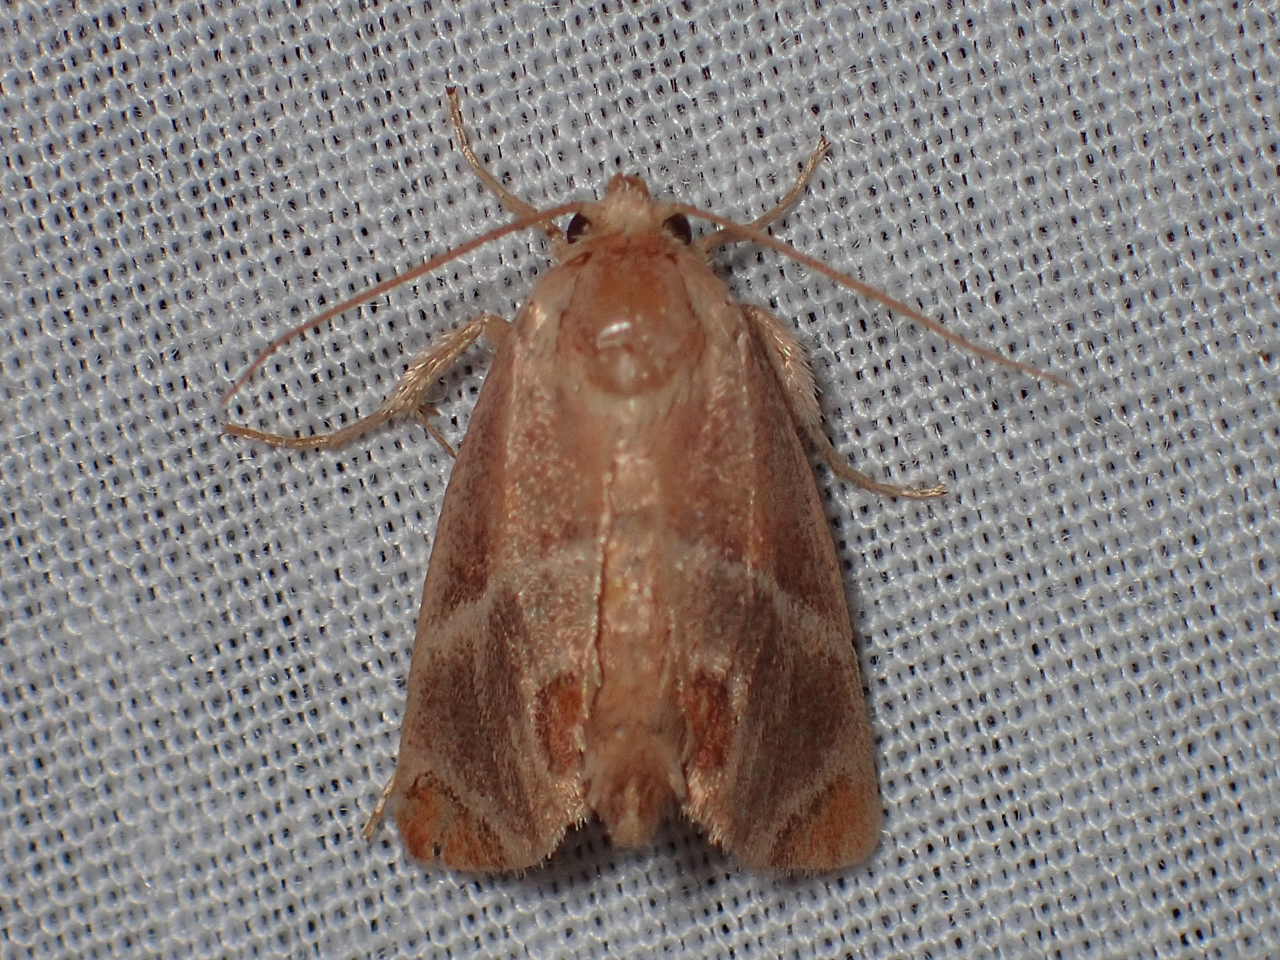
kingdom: Animalia
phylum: Arthropoda
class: Insecta
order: Lepidoptera
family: Limacodidae
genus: Apoda
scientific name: Apoda biguttata
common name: Shagreened slug moth
